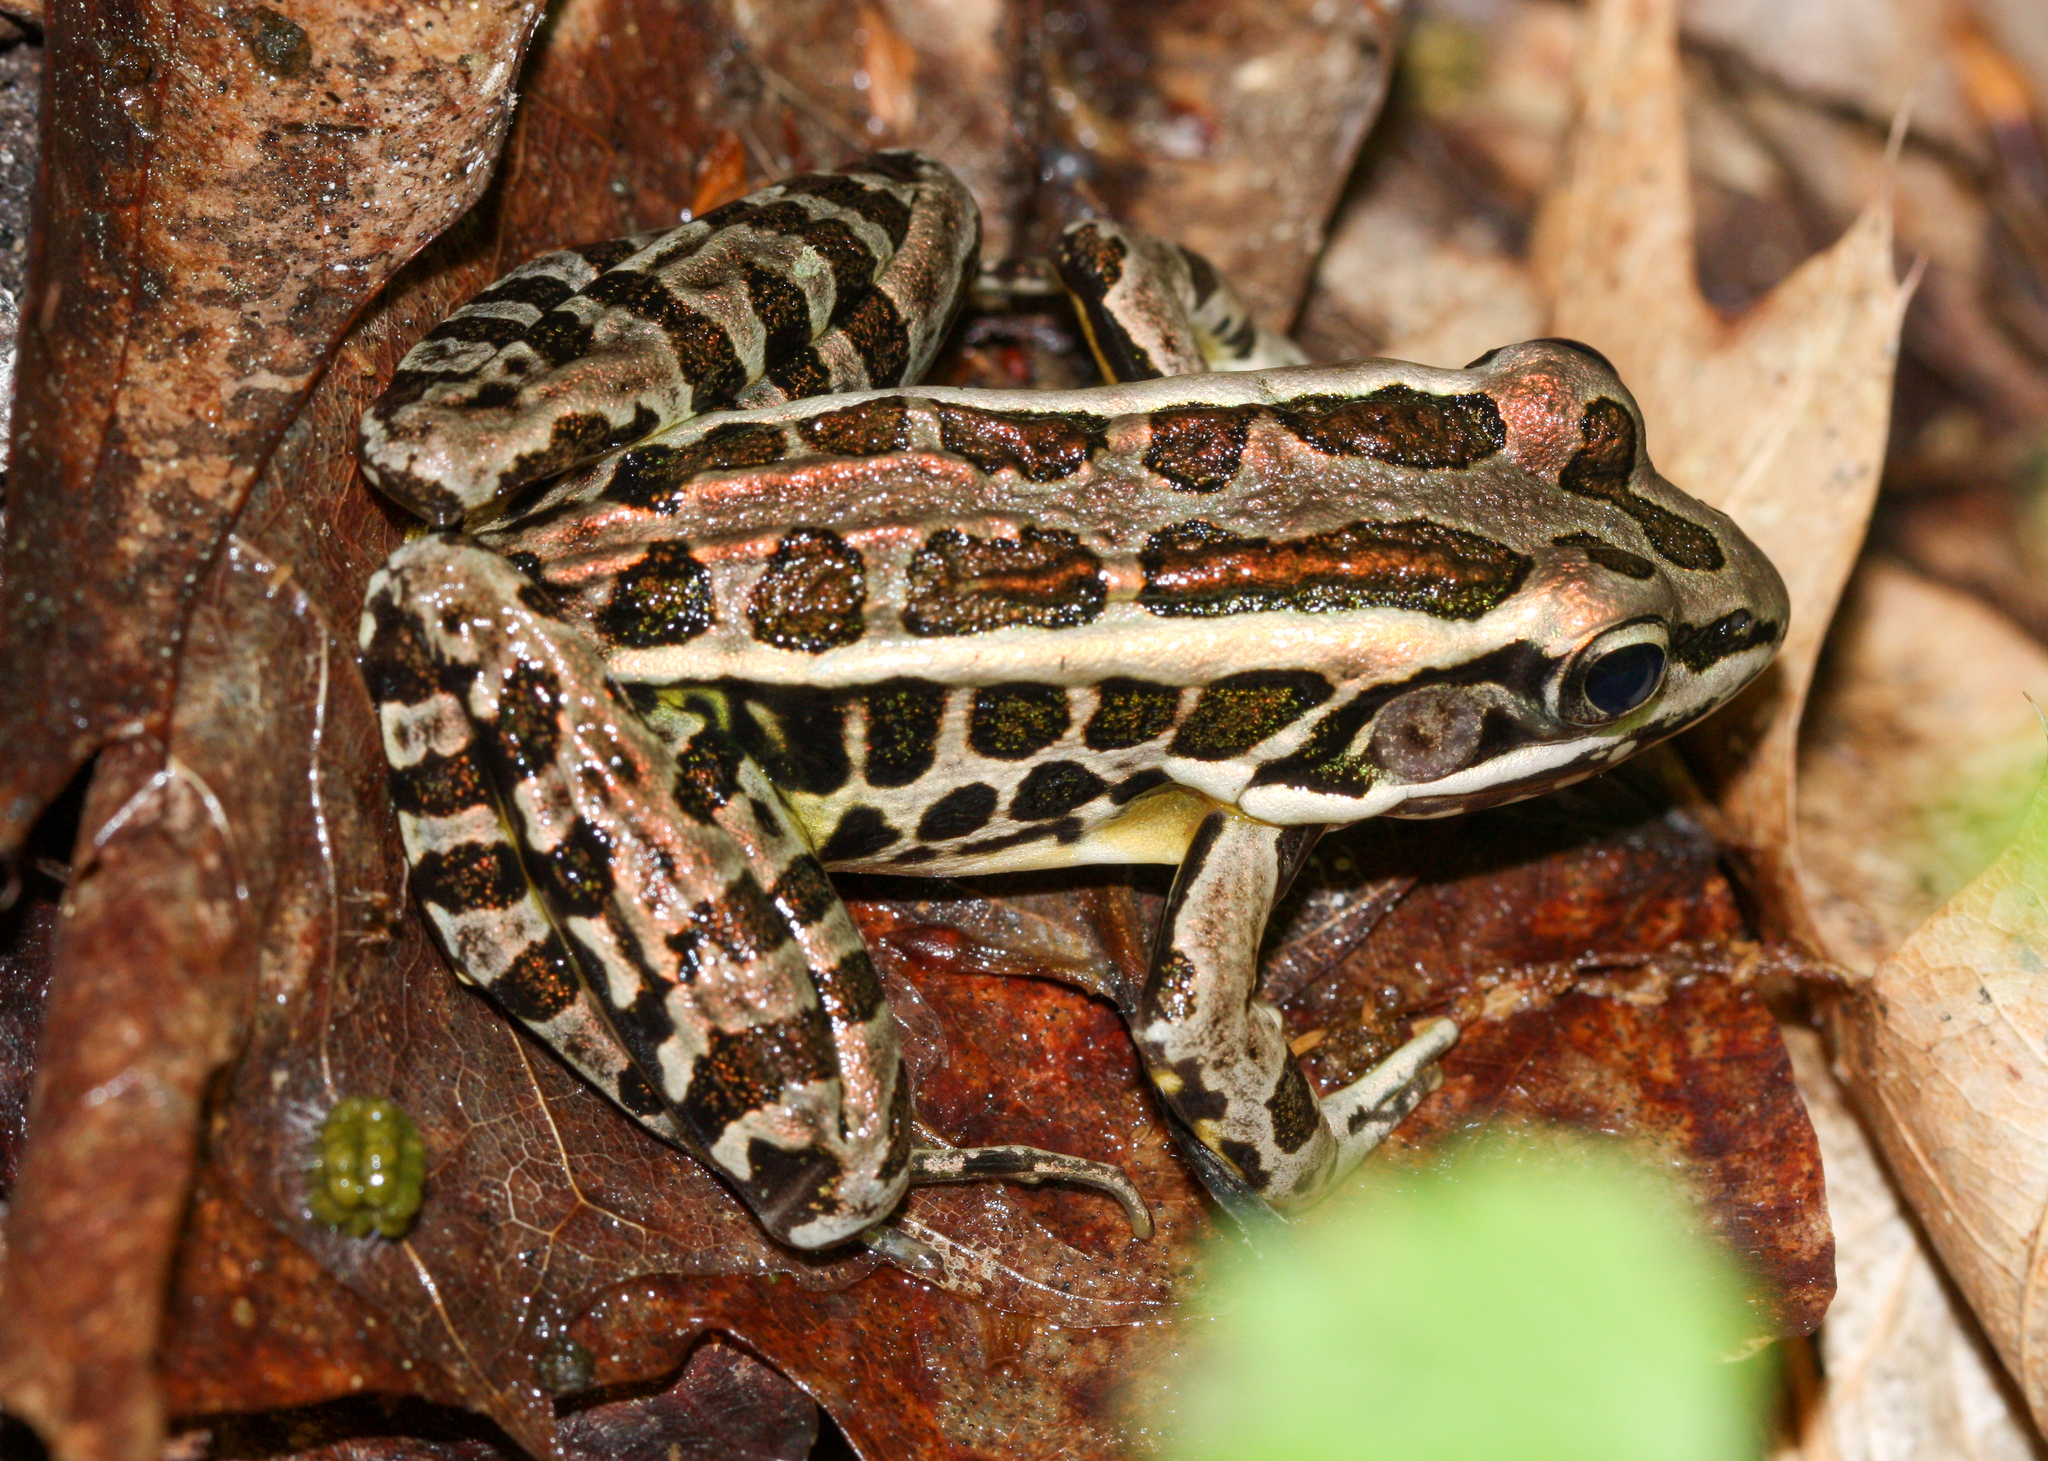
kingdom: Animalia
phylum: Chordata
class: Amphibia
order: Anura
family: Ranidae
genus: Lithobates
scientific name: Lithobates palustris
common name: Pickerel frog
